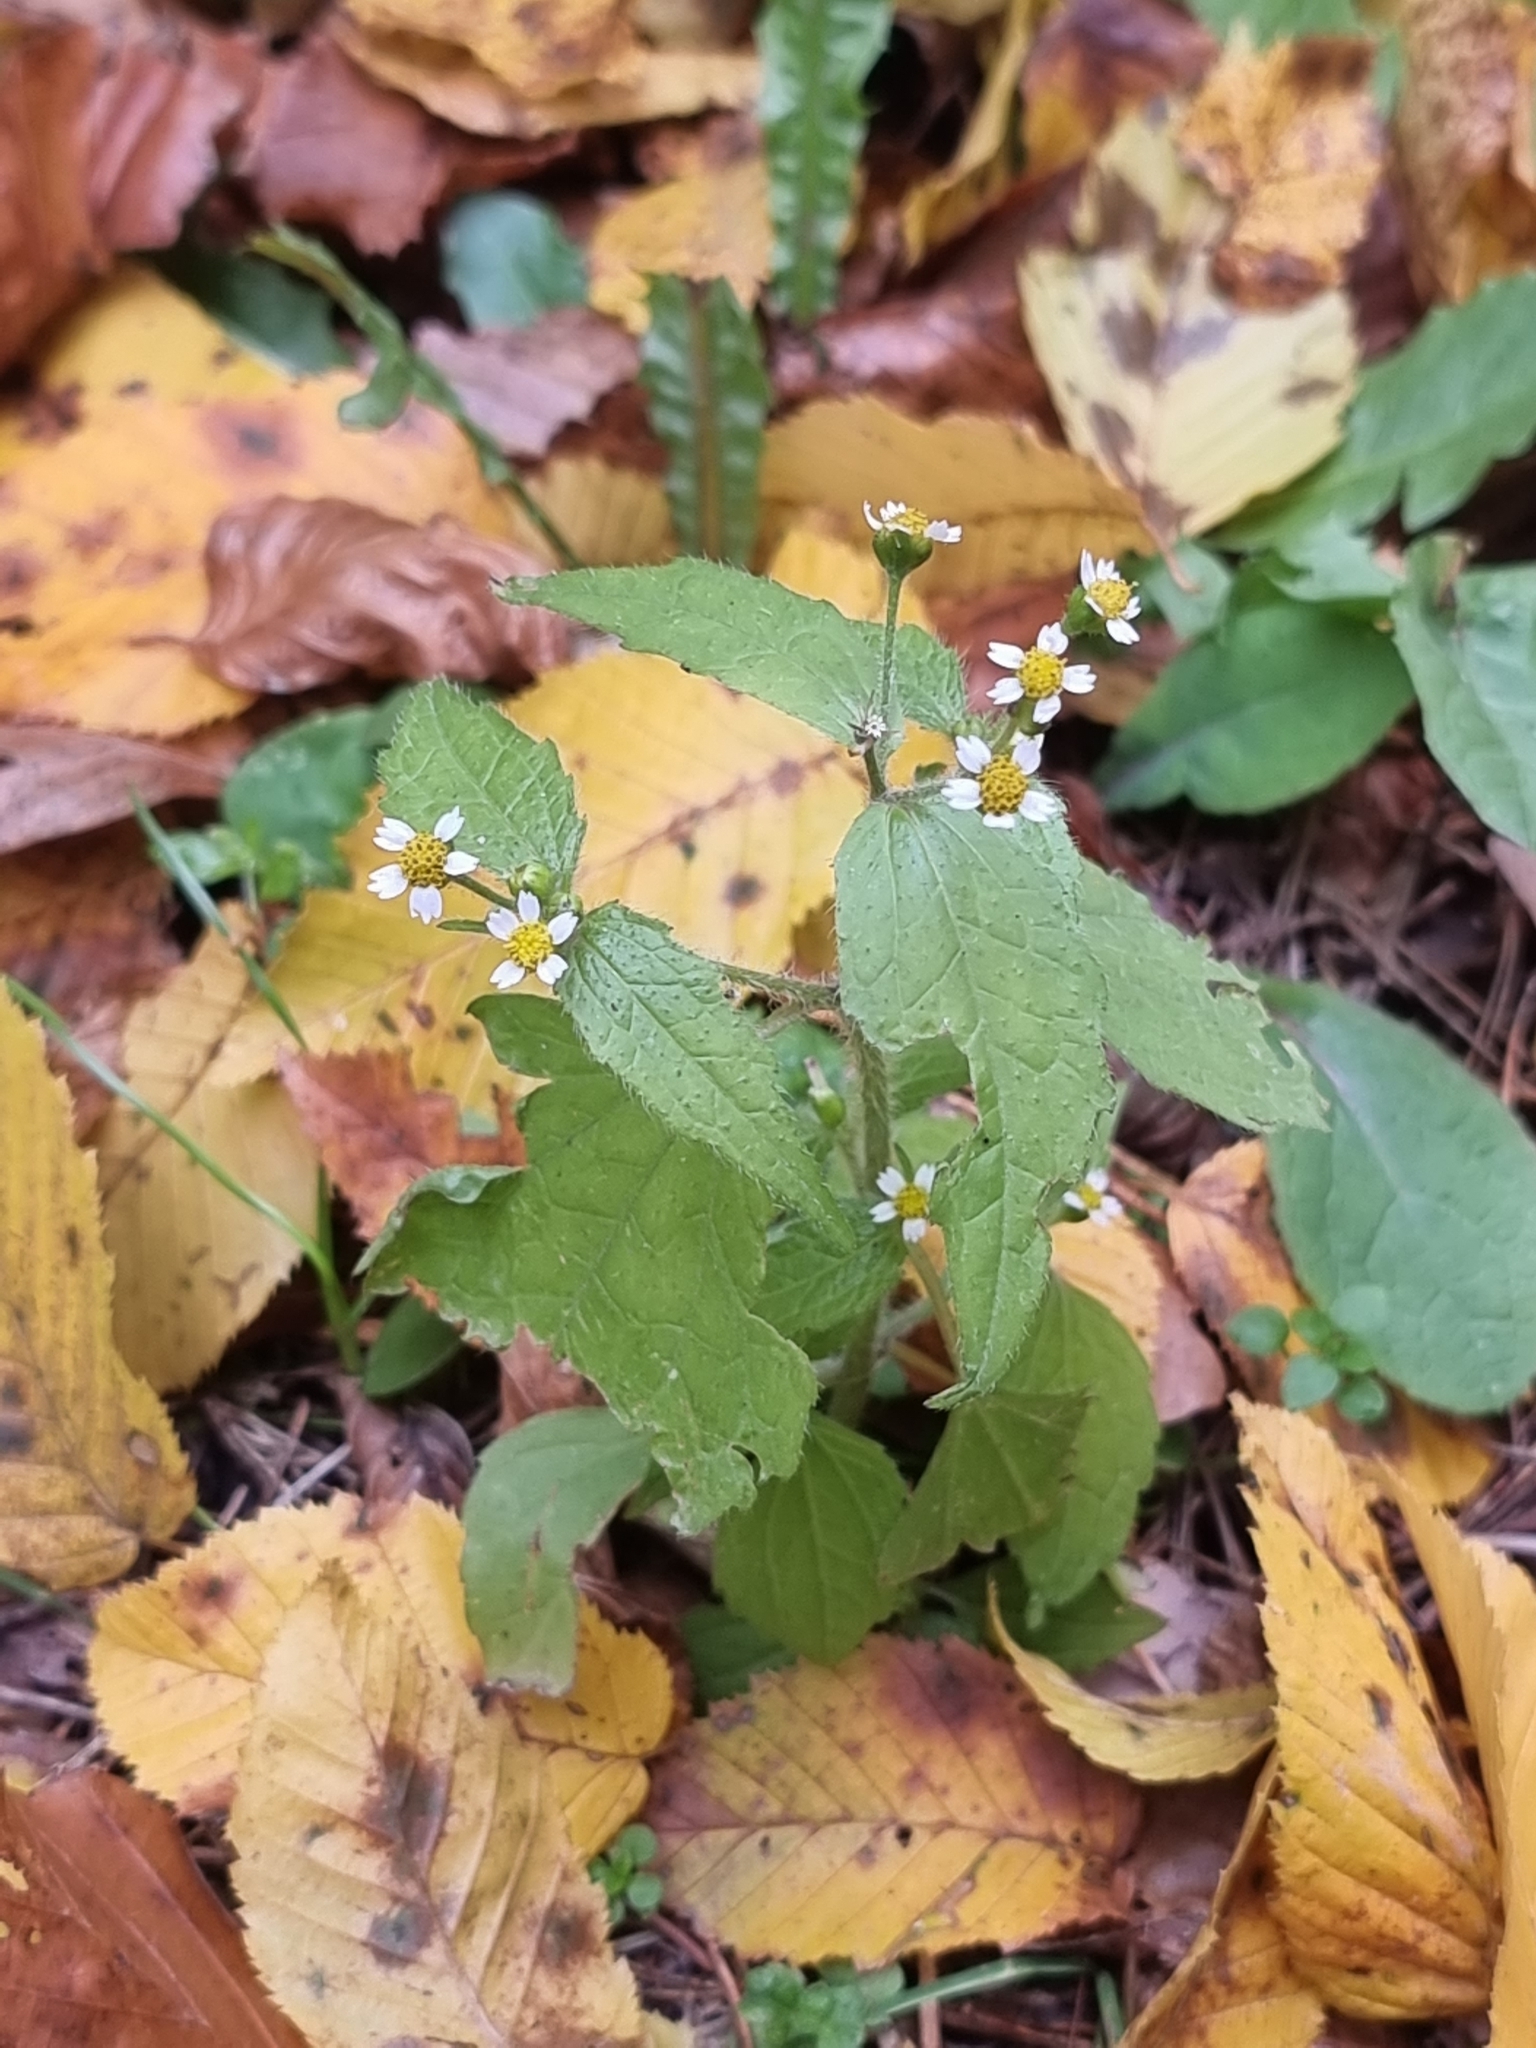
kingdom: Plantae
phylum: Tracheophyta
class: Magnoliopsida
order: Asterales
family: Asteraceae
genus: Galinsoga
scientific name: Galinsoga quadriradiata
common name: Shaggy soldier
